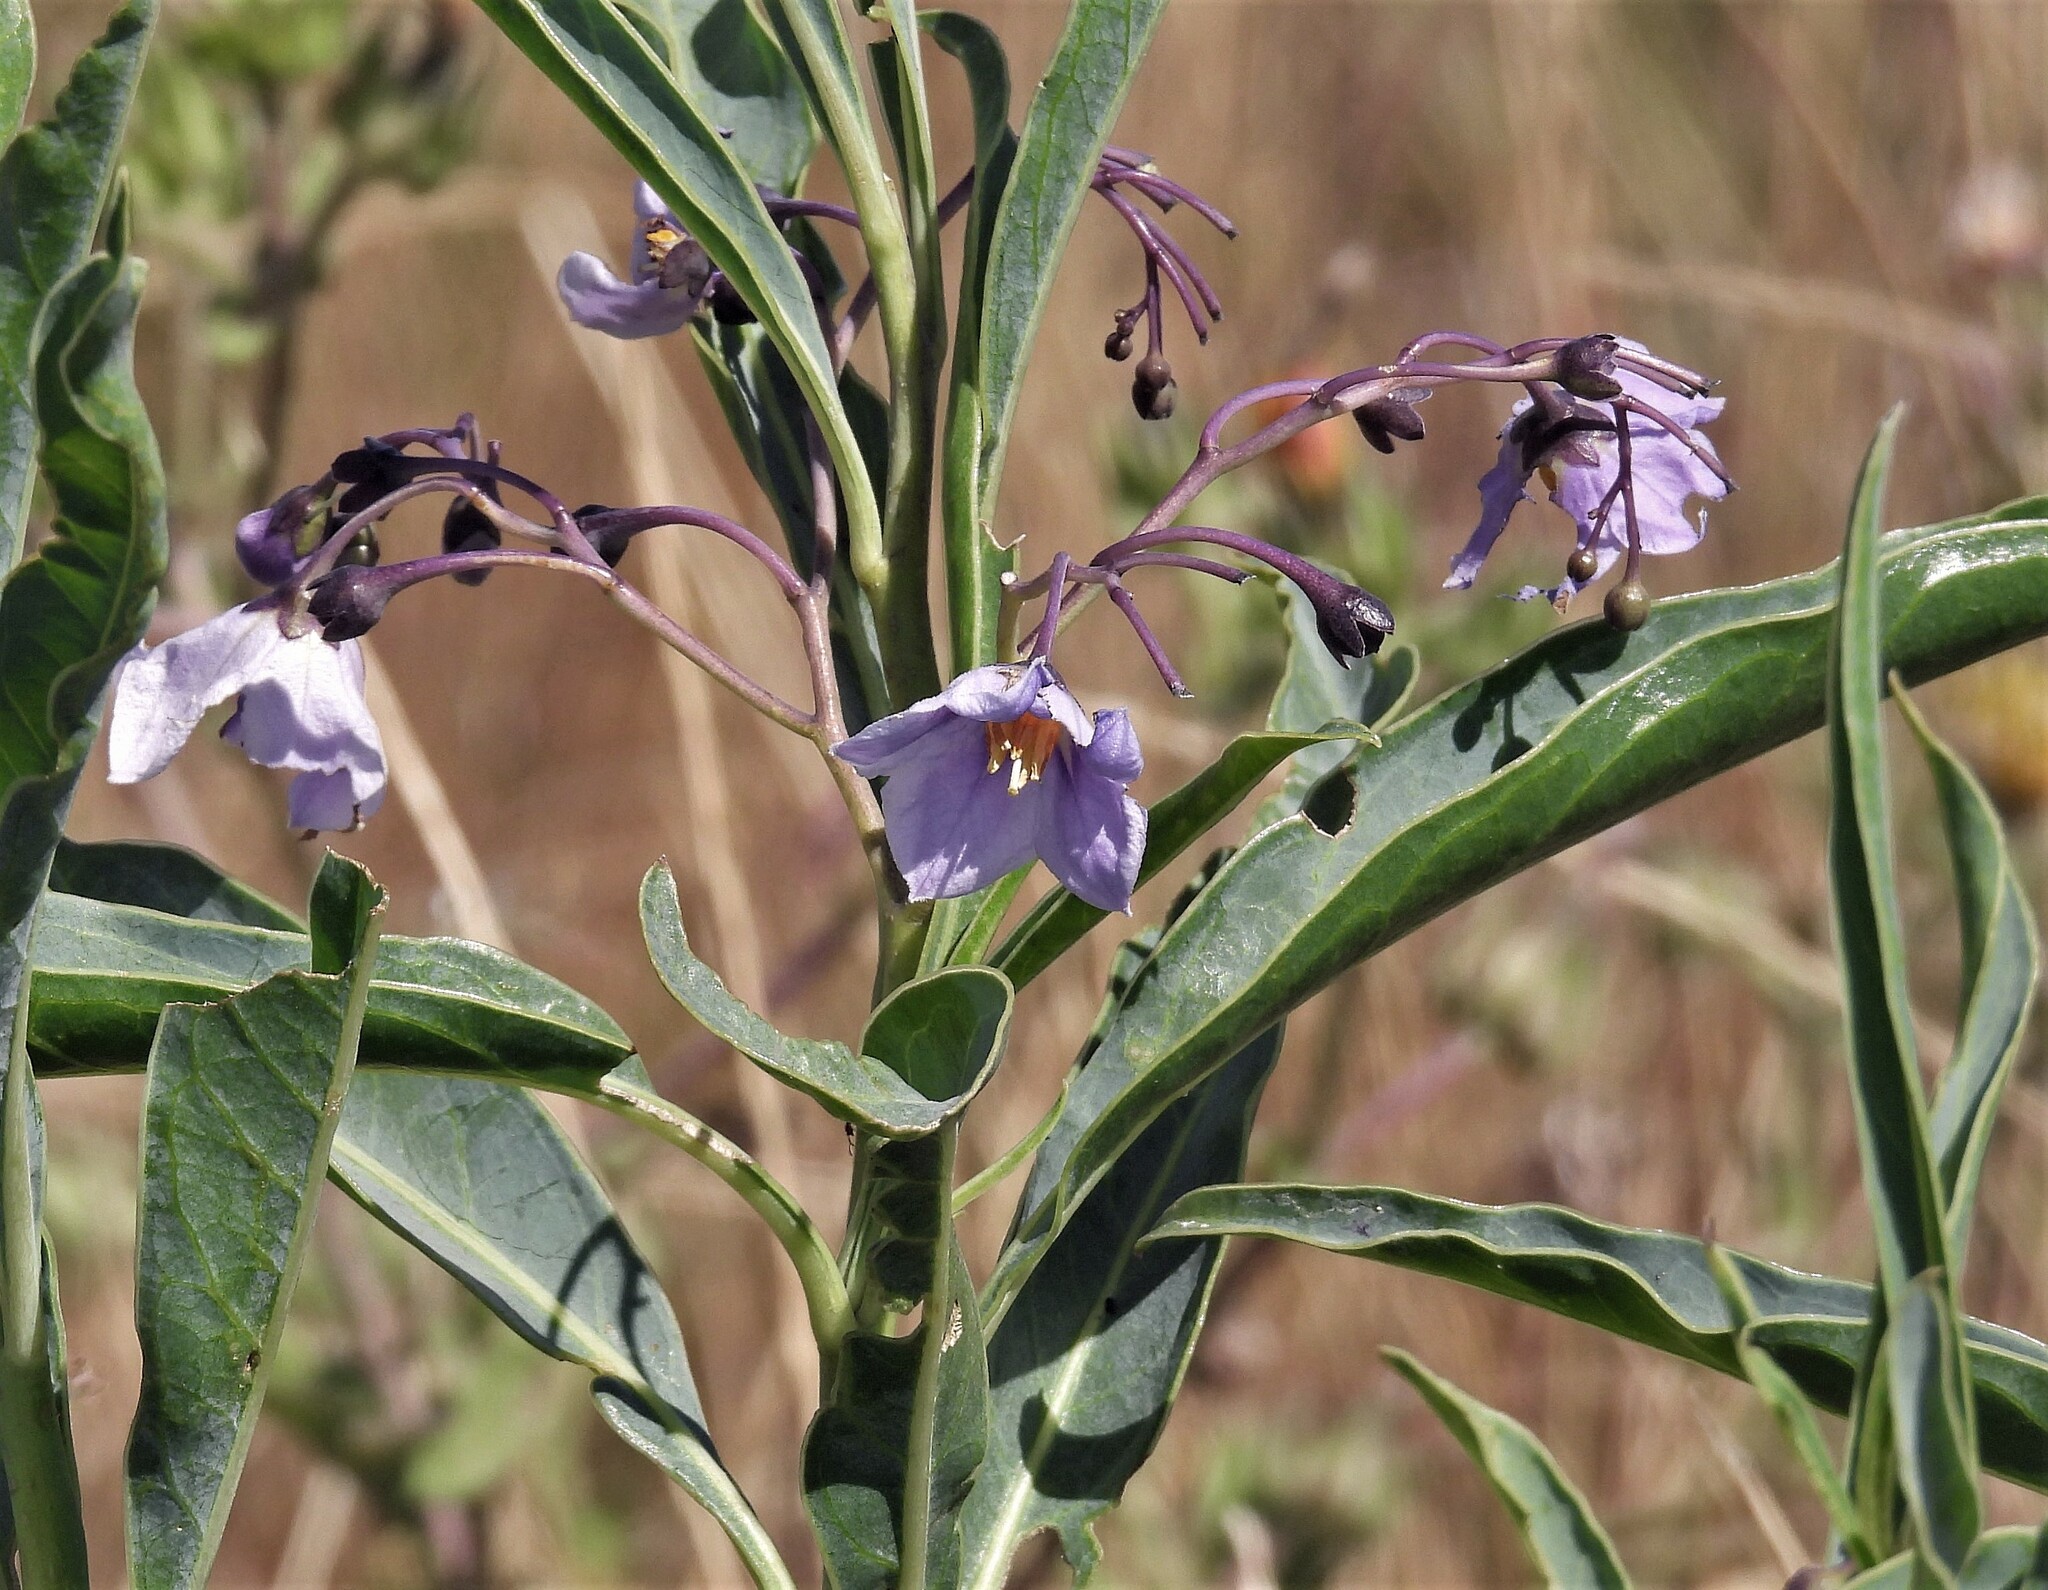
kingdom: Plantae
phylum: Tracheophyta
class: Magnoliopsida
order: Solanales
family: Solanaceae
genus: Solanum
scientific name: Solanum glaucophyllum
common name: Waxyleaf nightshade
